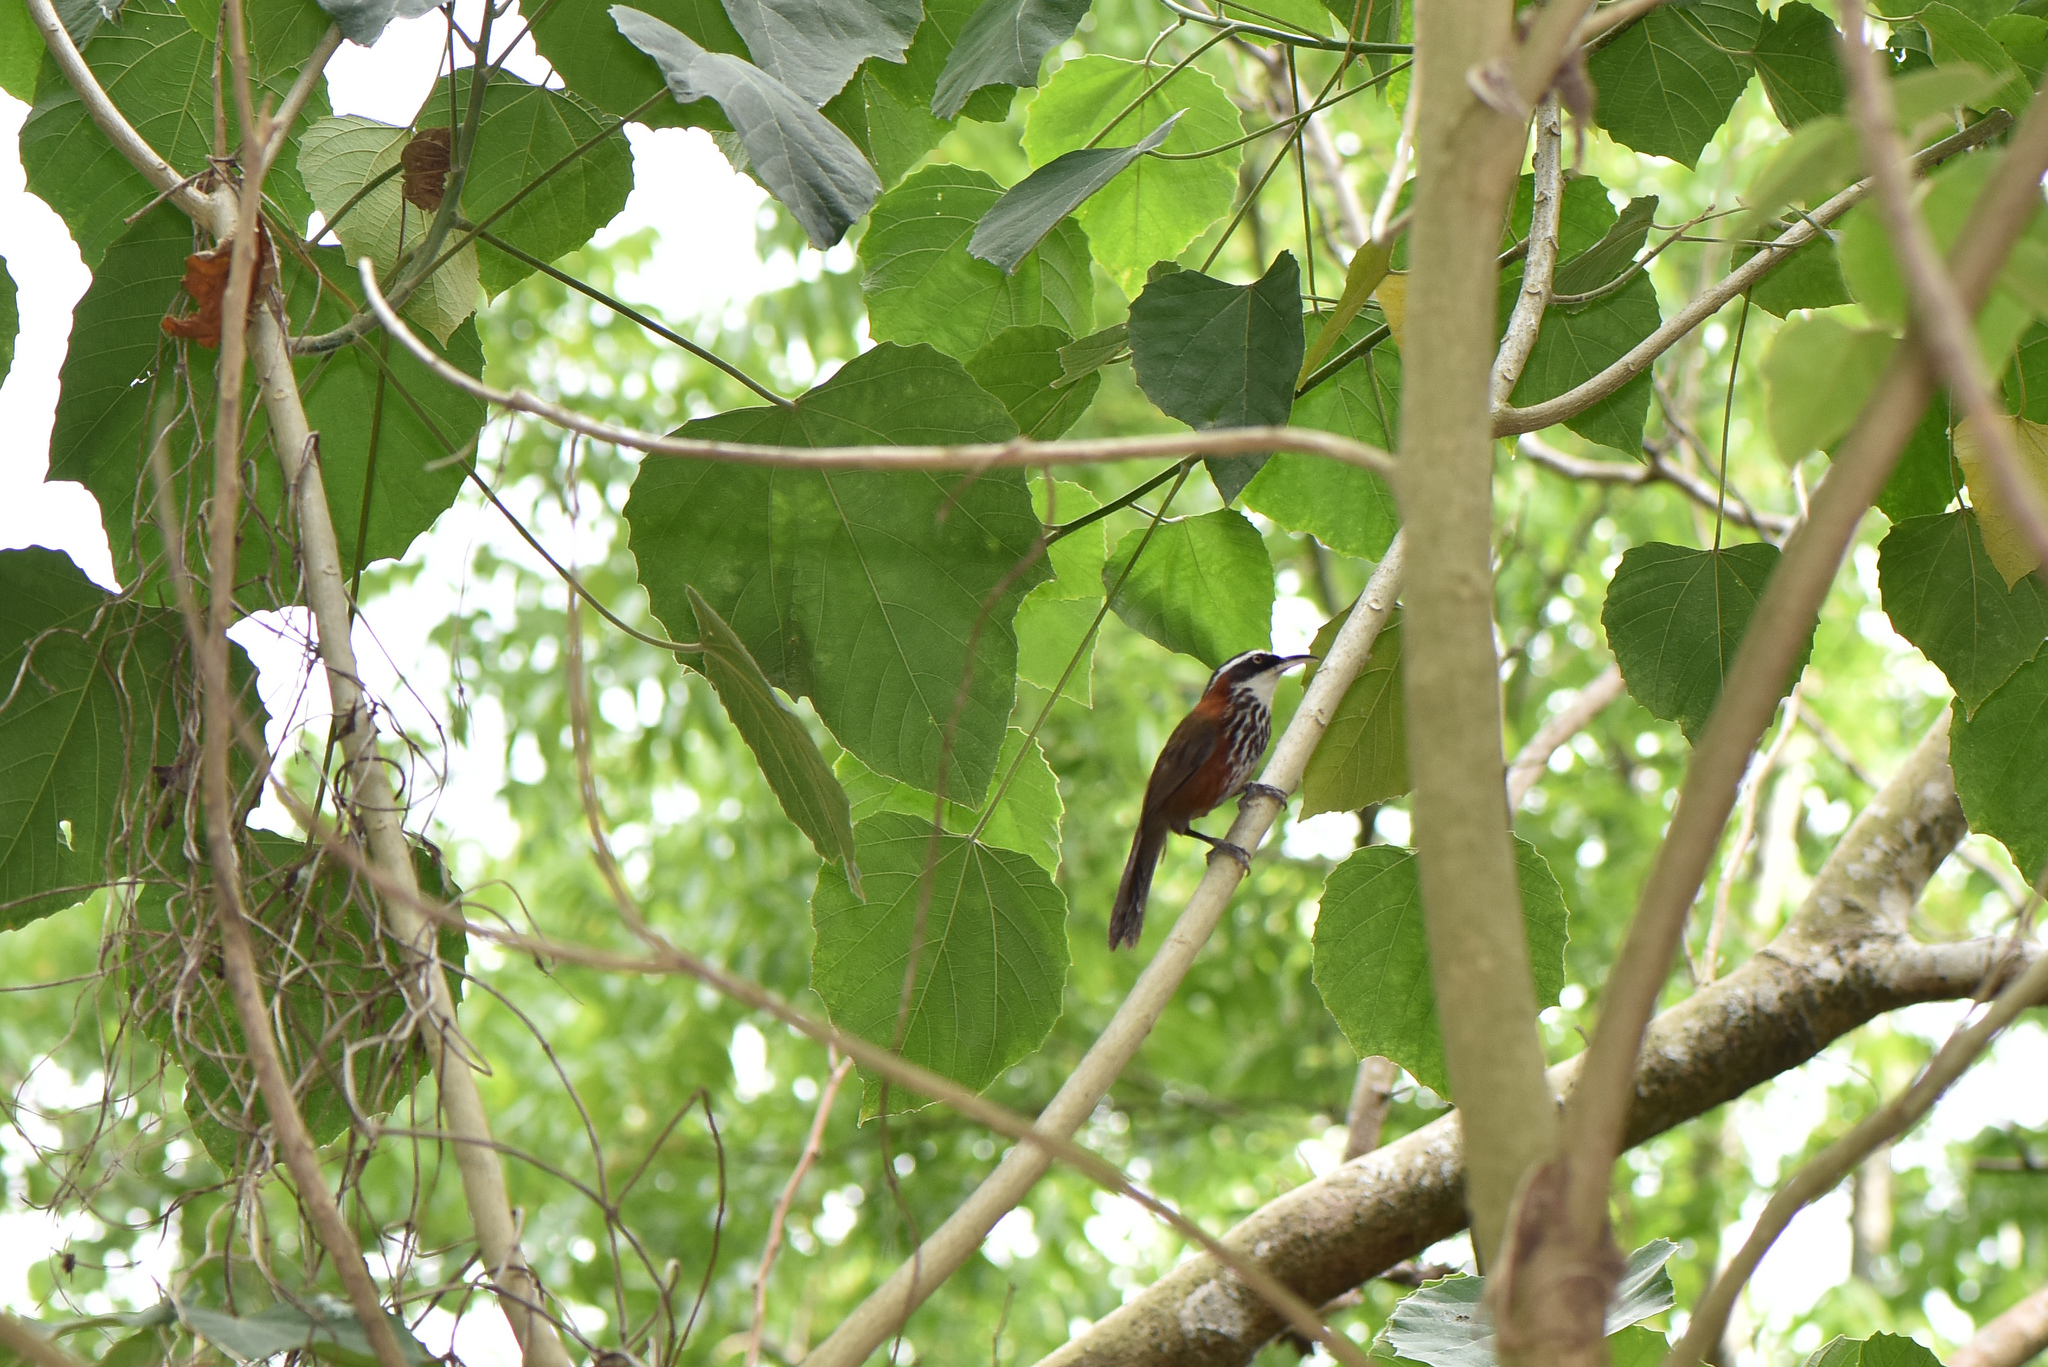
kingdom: Animalia
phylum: Chordata
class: Aves
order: Passeriformes
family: Timaliidae
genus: Pomatorhinus
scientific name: Pomatorhinus musicus
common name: Taiwan scimitar-babbler
